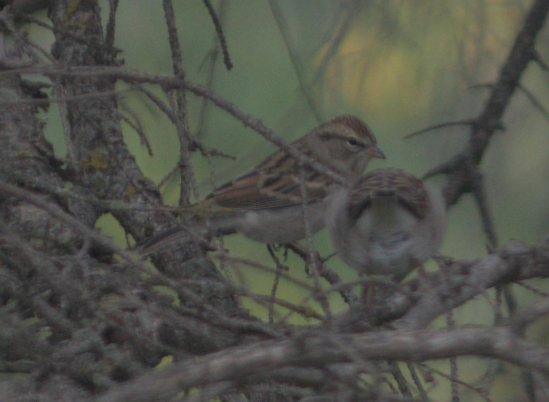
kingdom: Animalia
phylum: Chordata
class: Aves
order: Passeriformes
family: Passerellidae
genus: Spizella
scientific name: Spizella passerina
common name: Chipping sparrow
